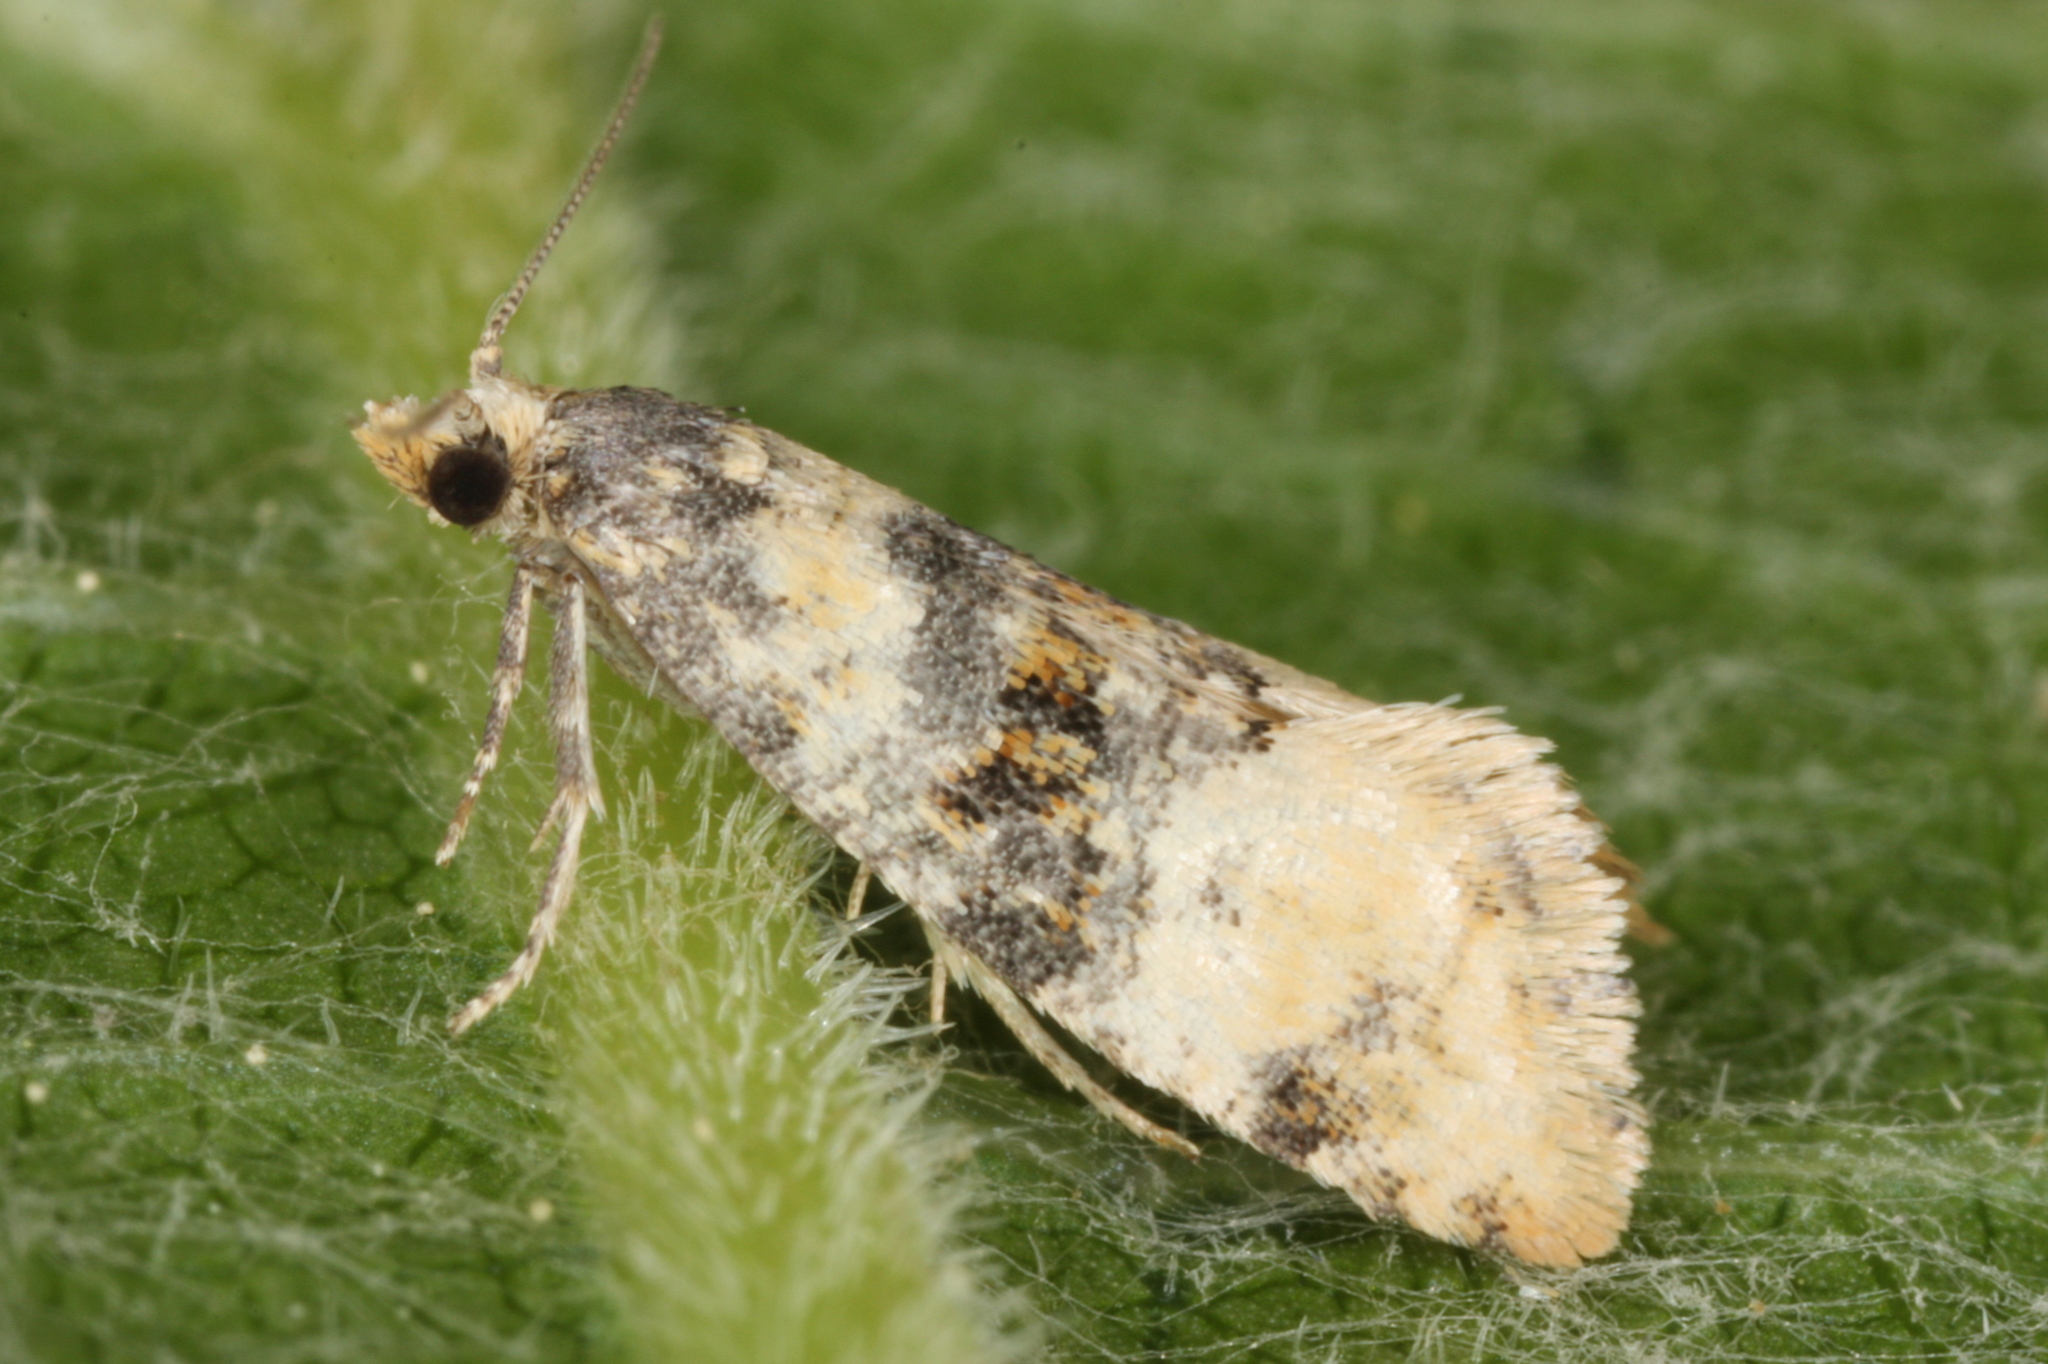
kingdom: Animalia
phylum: Arthropoda
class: Insecta
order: Lepidoptera
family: Tortricidae
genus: Thyraylia
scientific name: Thyraylia nana
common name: Birch conch
